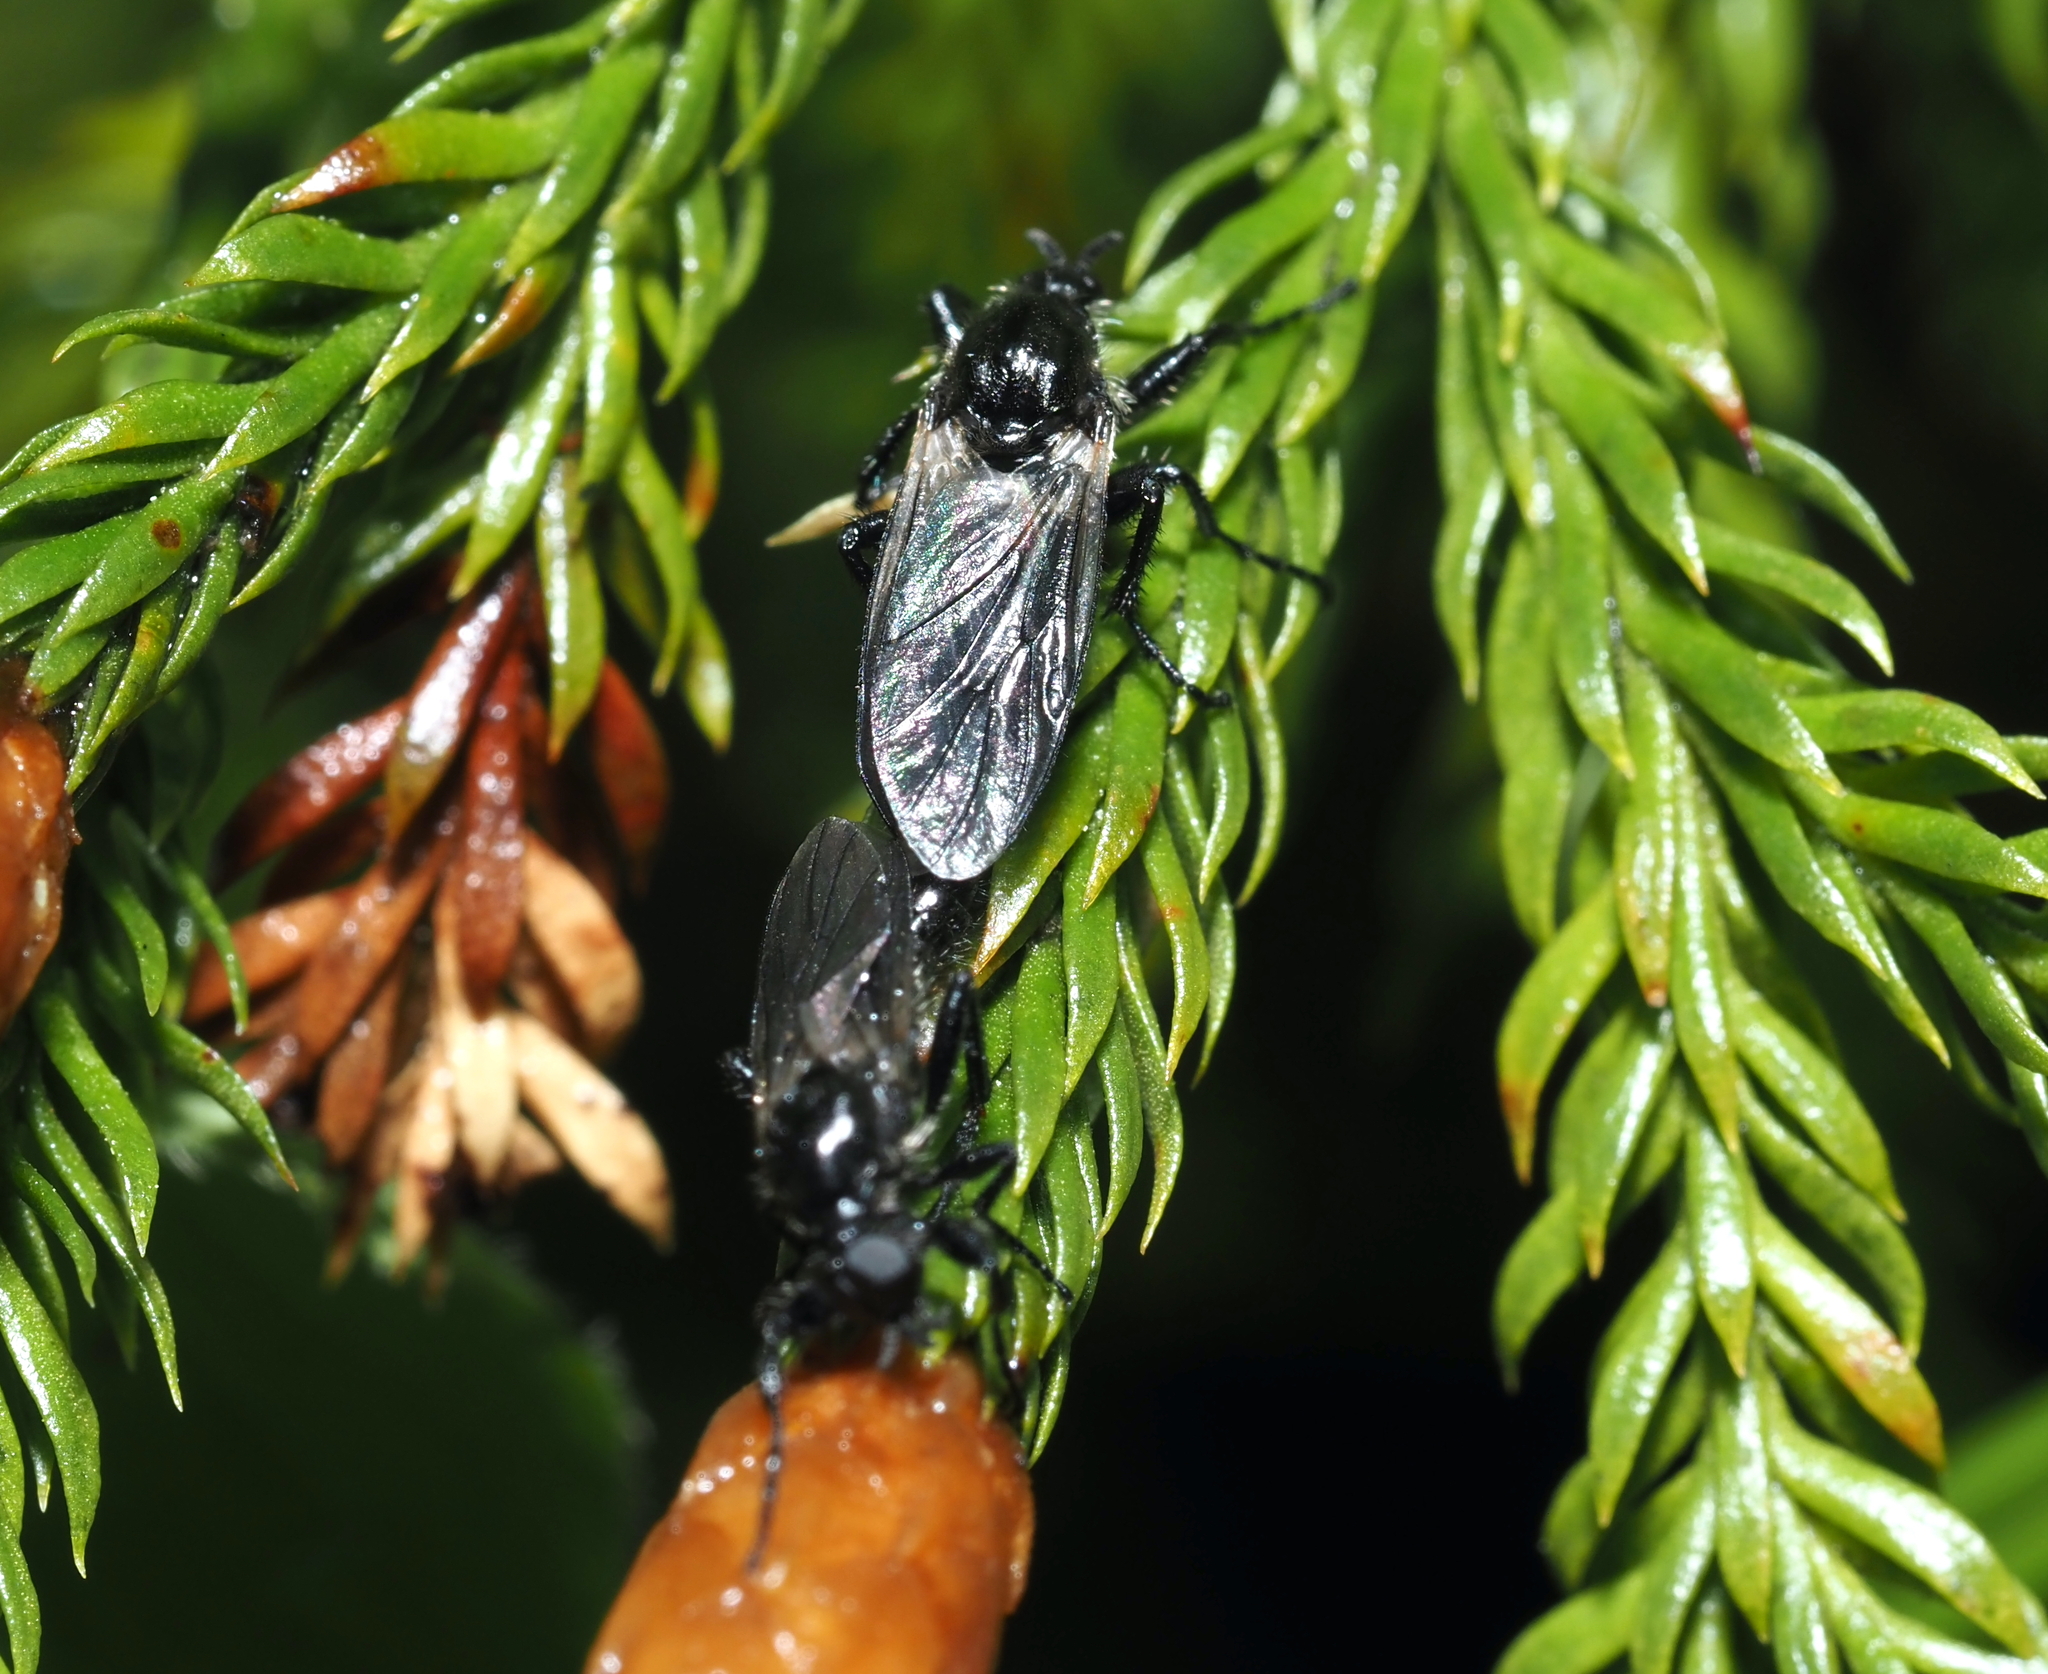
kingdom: Animalia
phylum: Arthropoda
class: Insecta
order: Diptera
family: Bibionidae
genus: Bibio
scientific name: Bibio albipennis
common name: White-winged march fly
